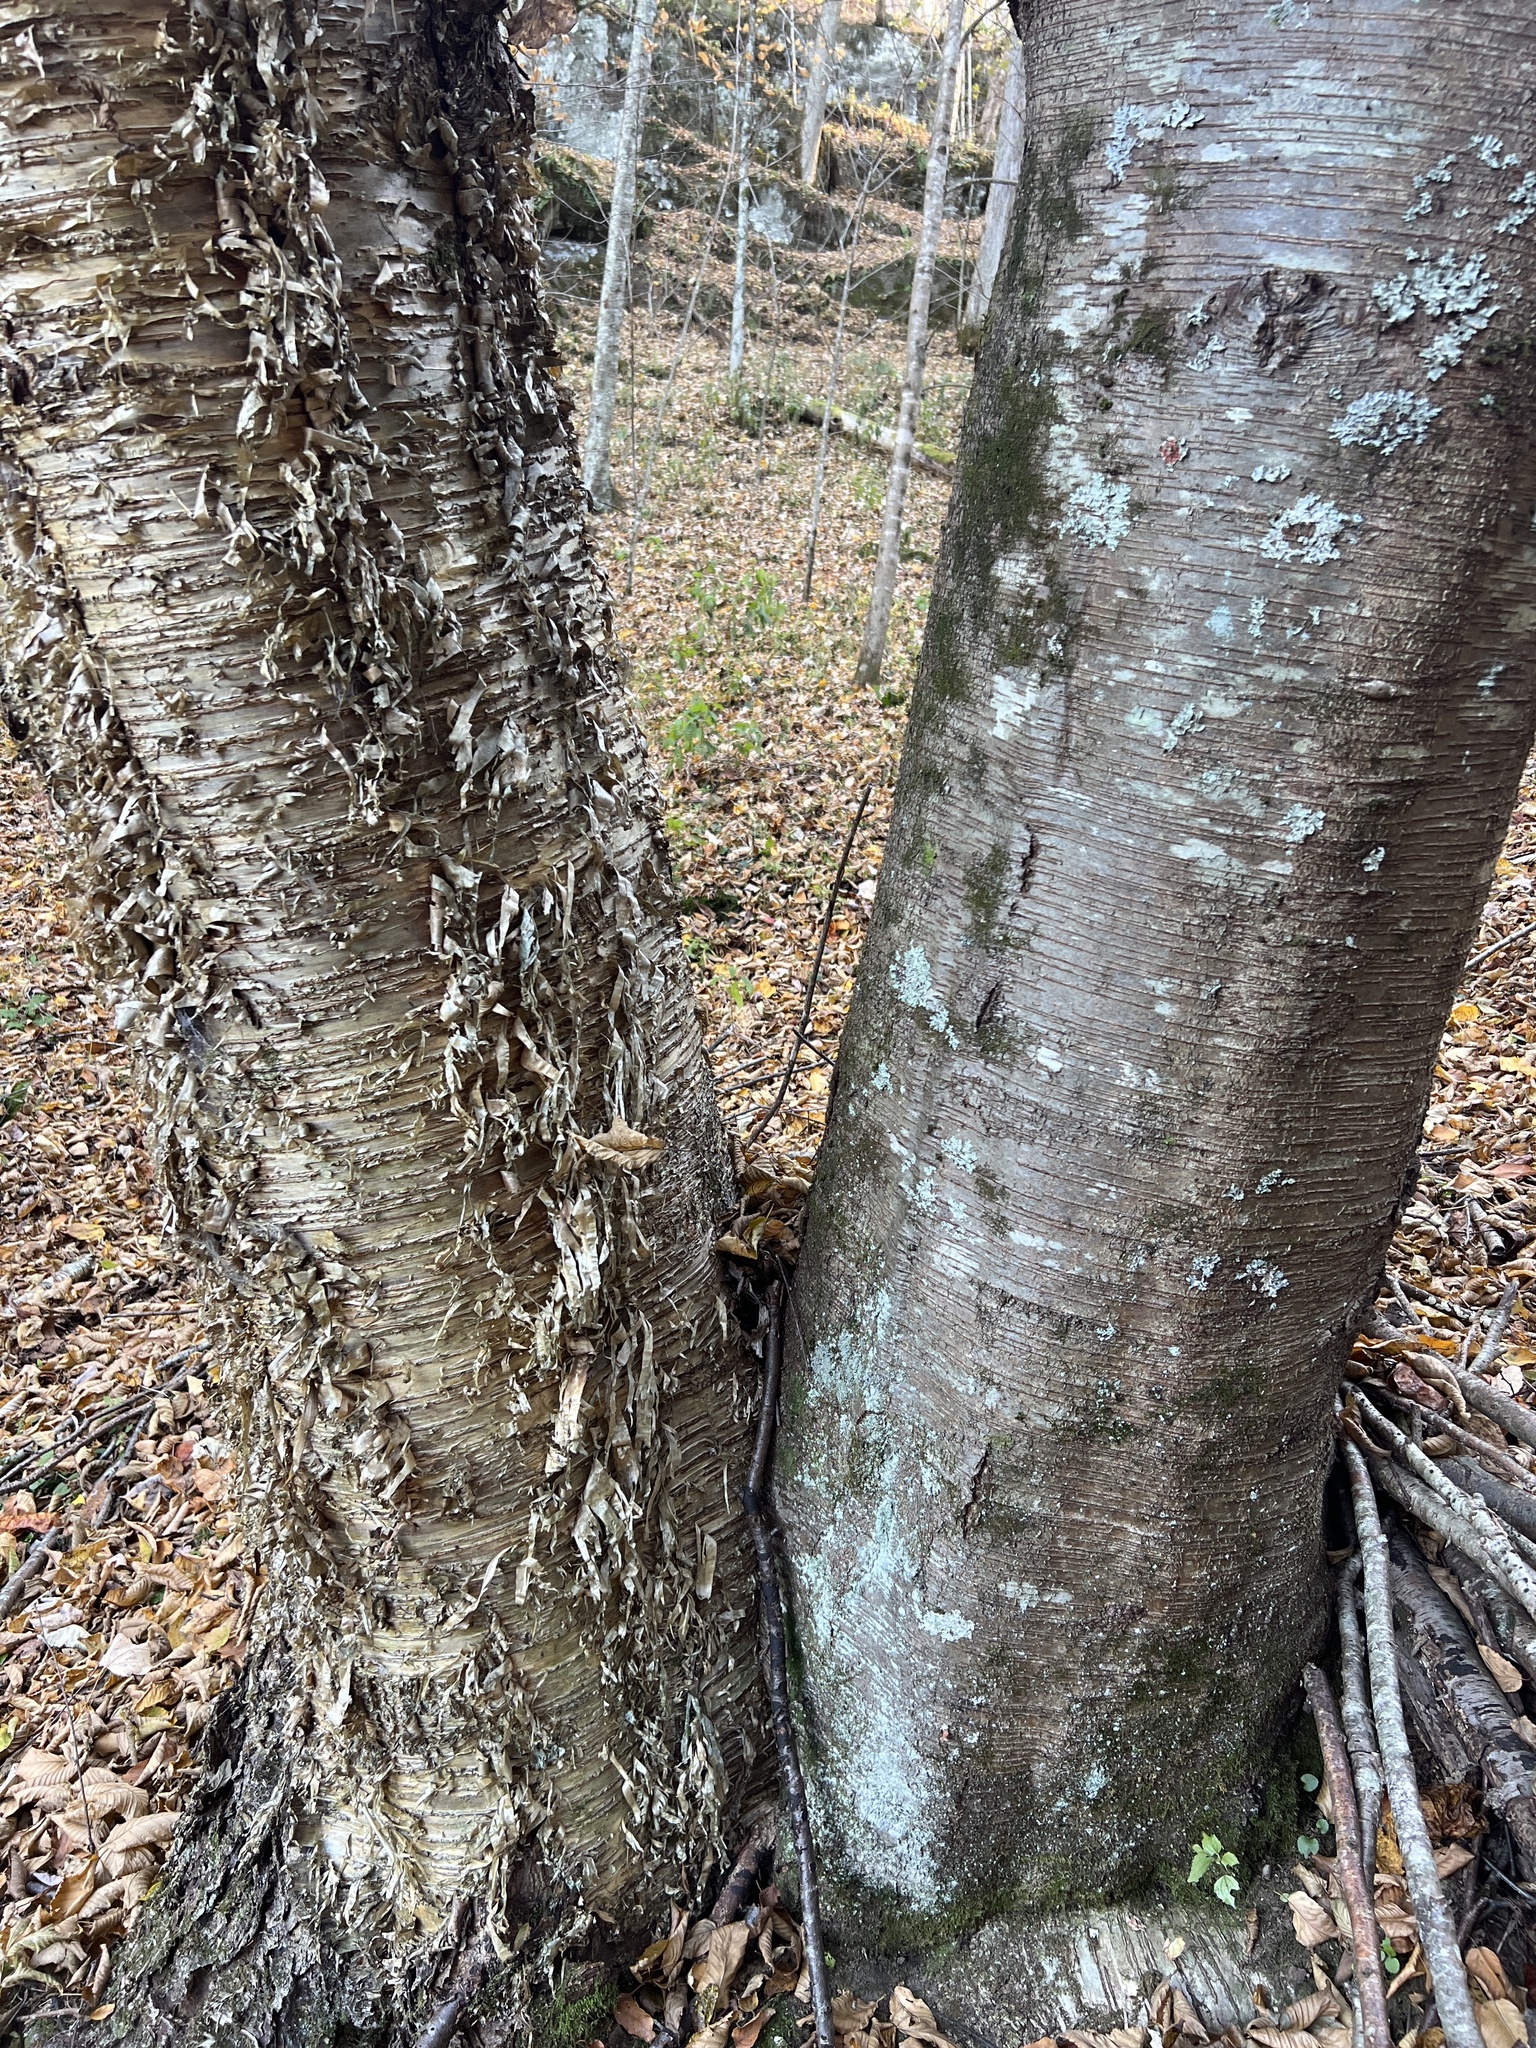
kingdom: Plantae
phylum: Tracheophyta
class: Magnoliopsida
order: Fagales
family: Betulaceae
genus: Betula
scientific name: Betula lenta
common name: Black birch
